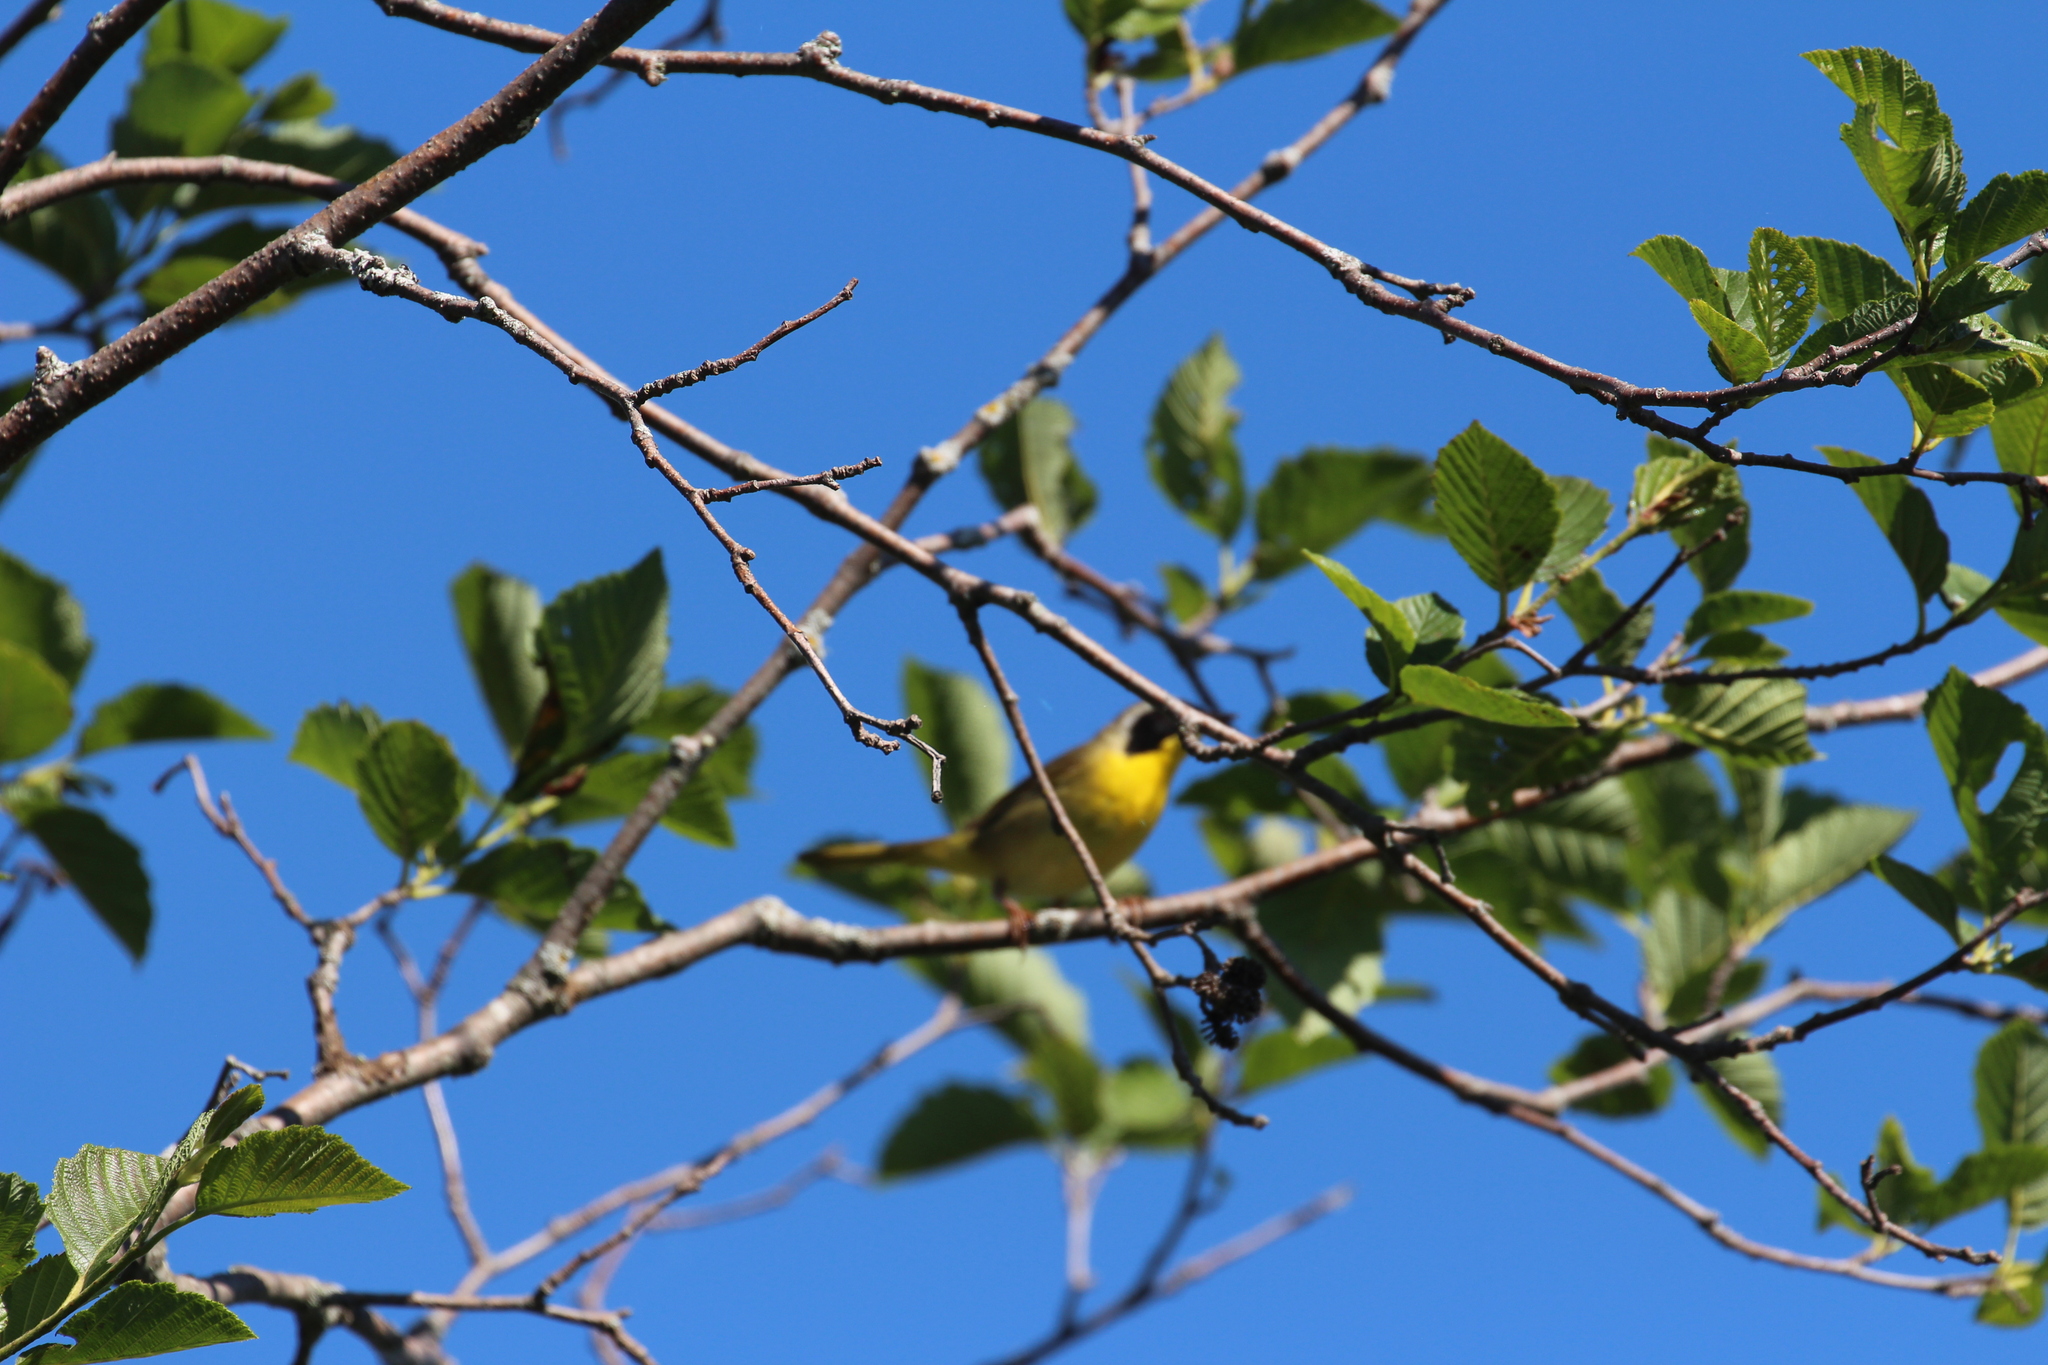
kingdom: Animalia
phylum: Chordata
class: Aves
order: Passeriformes
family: Parulidae
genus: Geothlypis
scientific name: Geothlypis trichas
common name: Common yellowthroat
